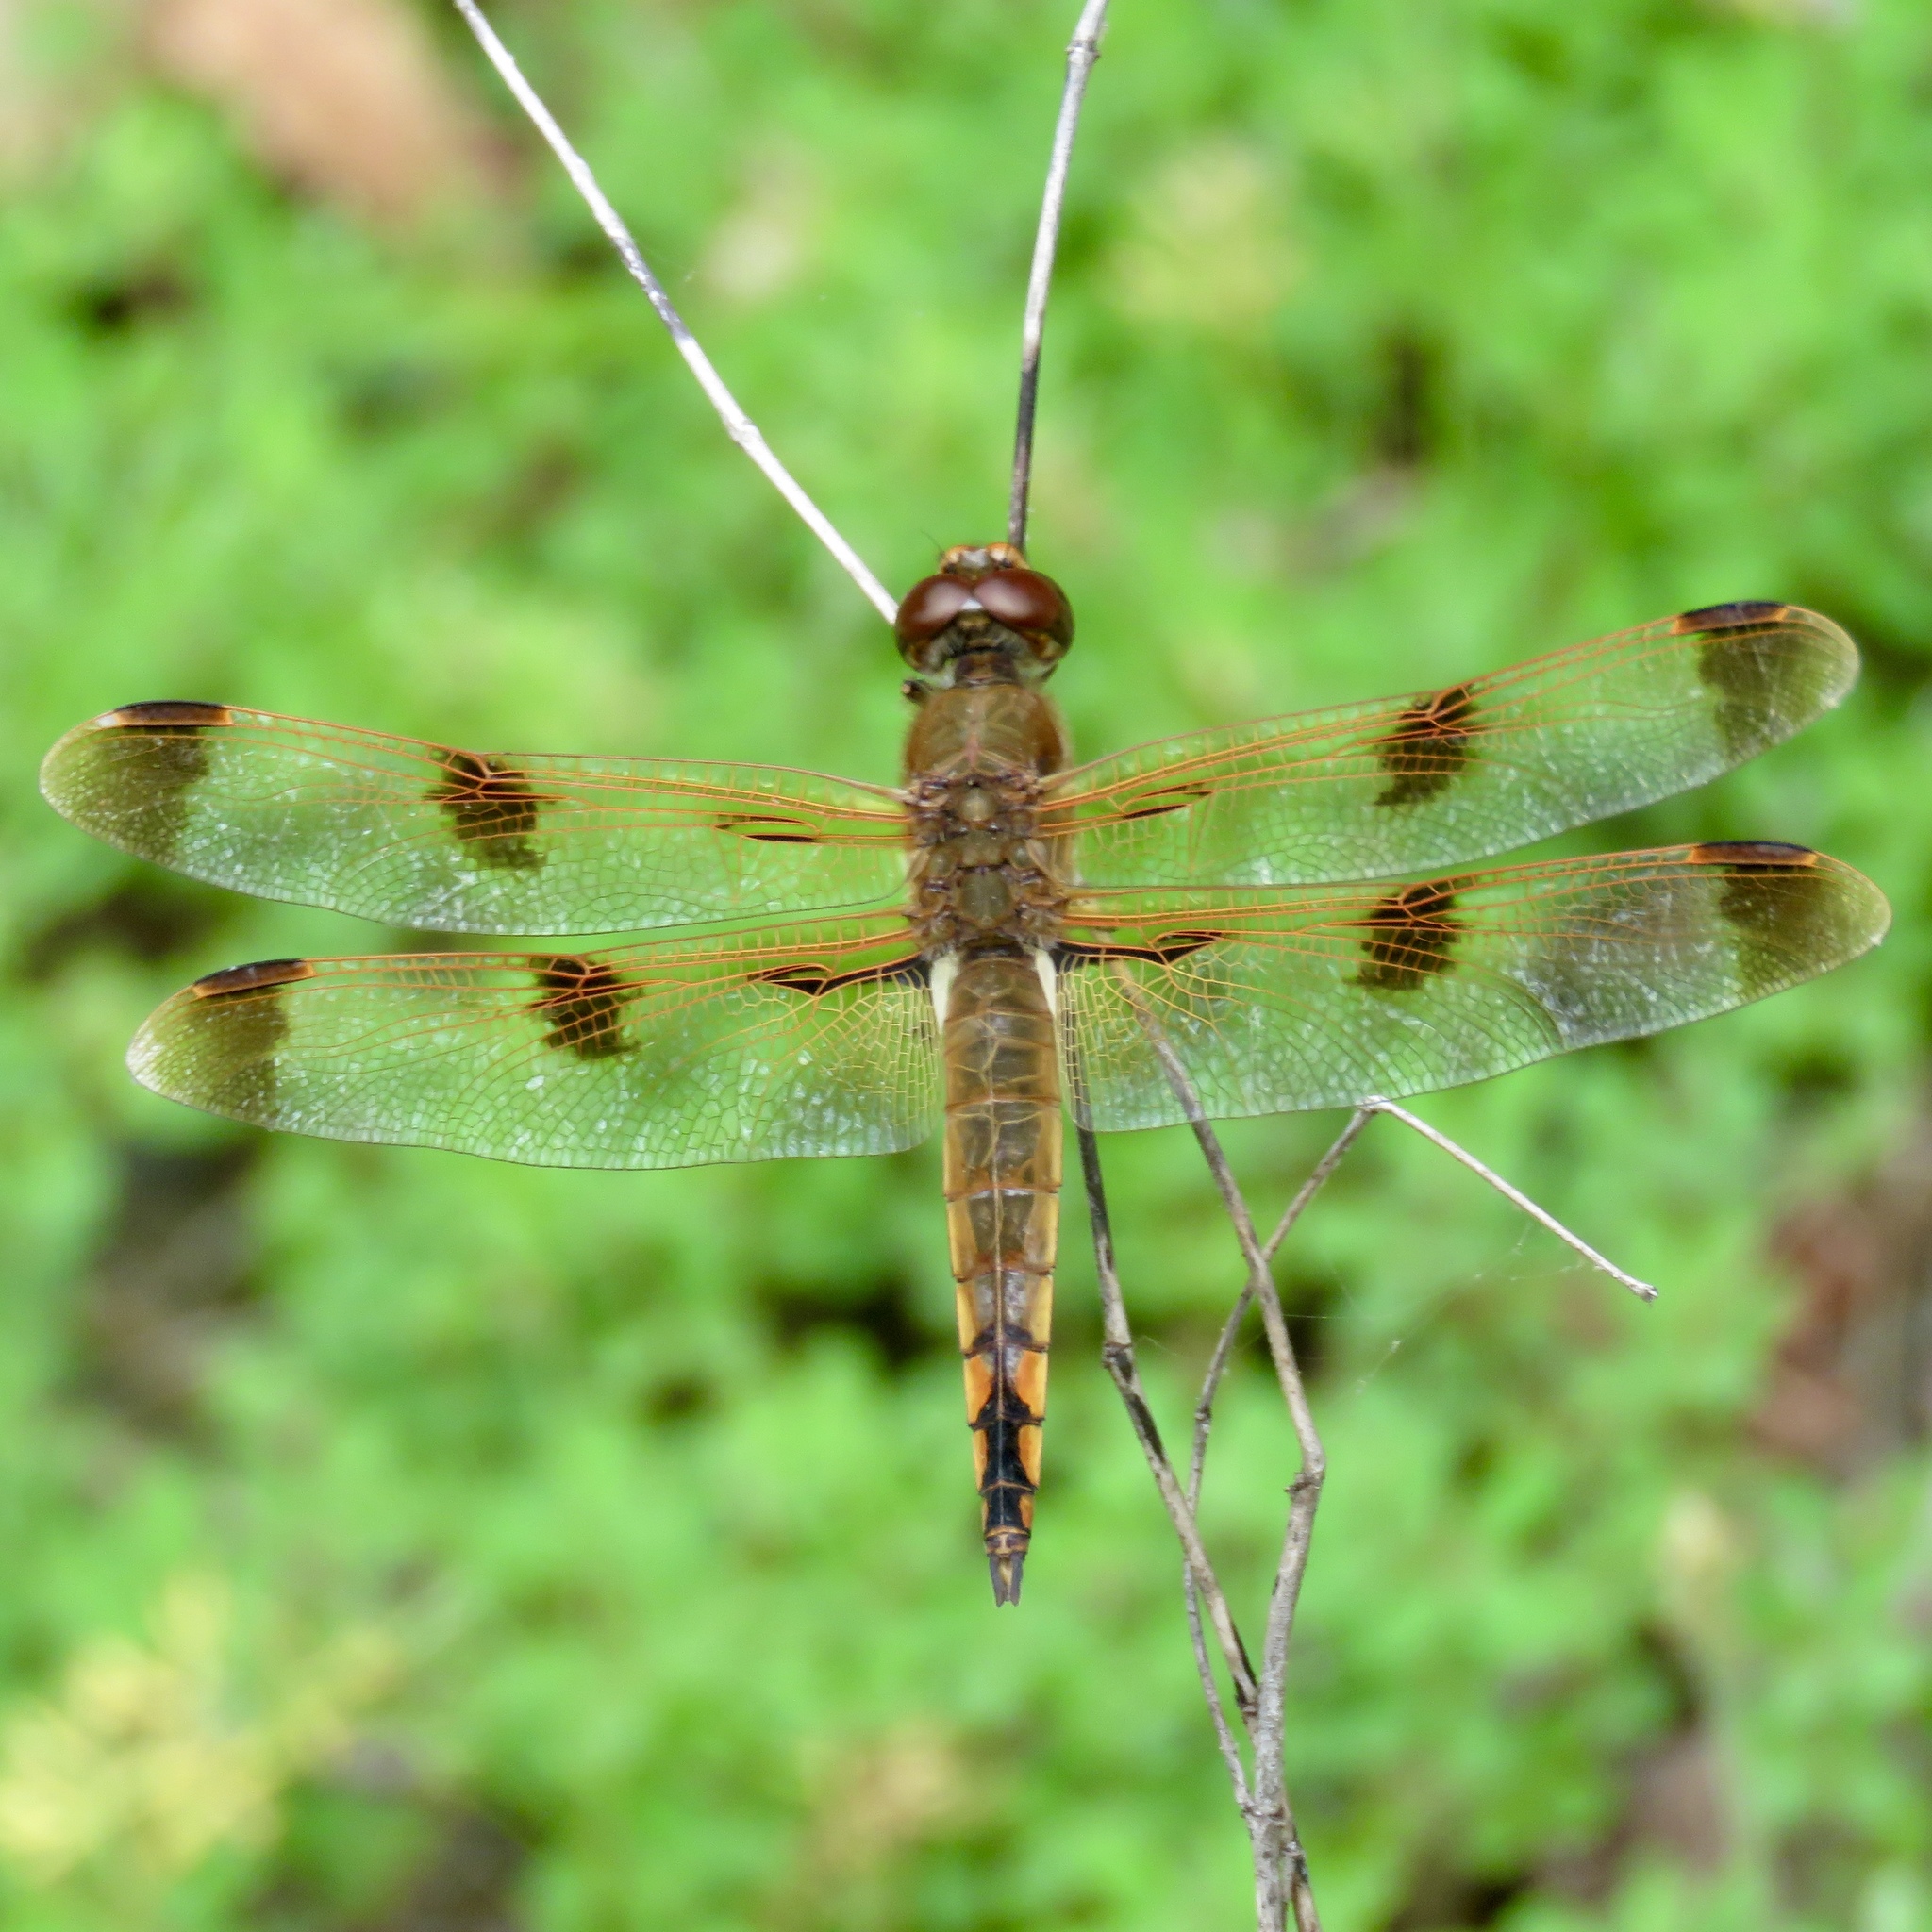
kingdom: Animalia
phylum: Arthropoda
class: Insecta
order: Odonata
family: Libellulidae
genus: Libellula
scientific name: Libellula semifasciata
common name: Painted skimmer
